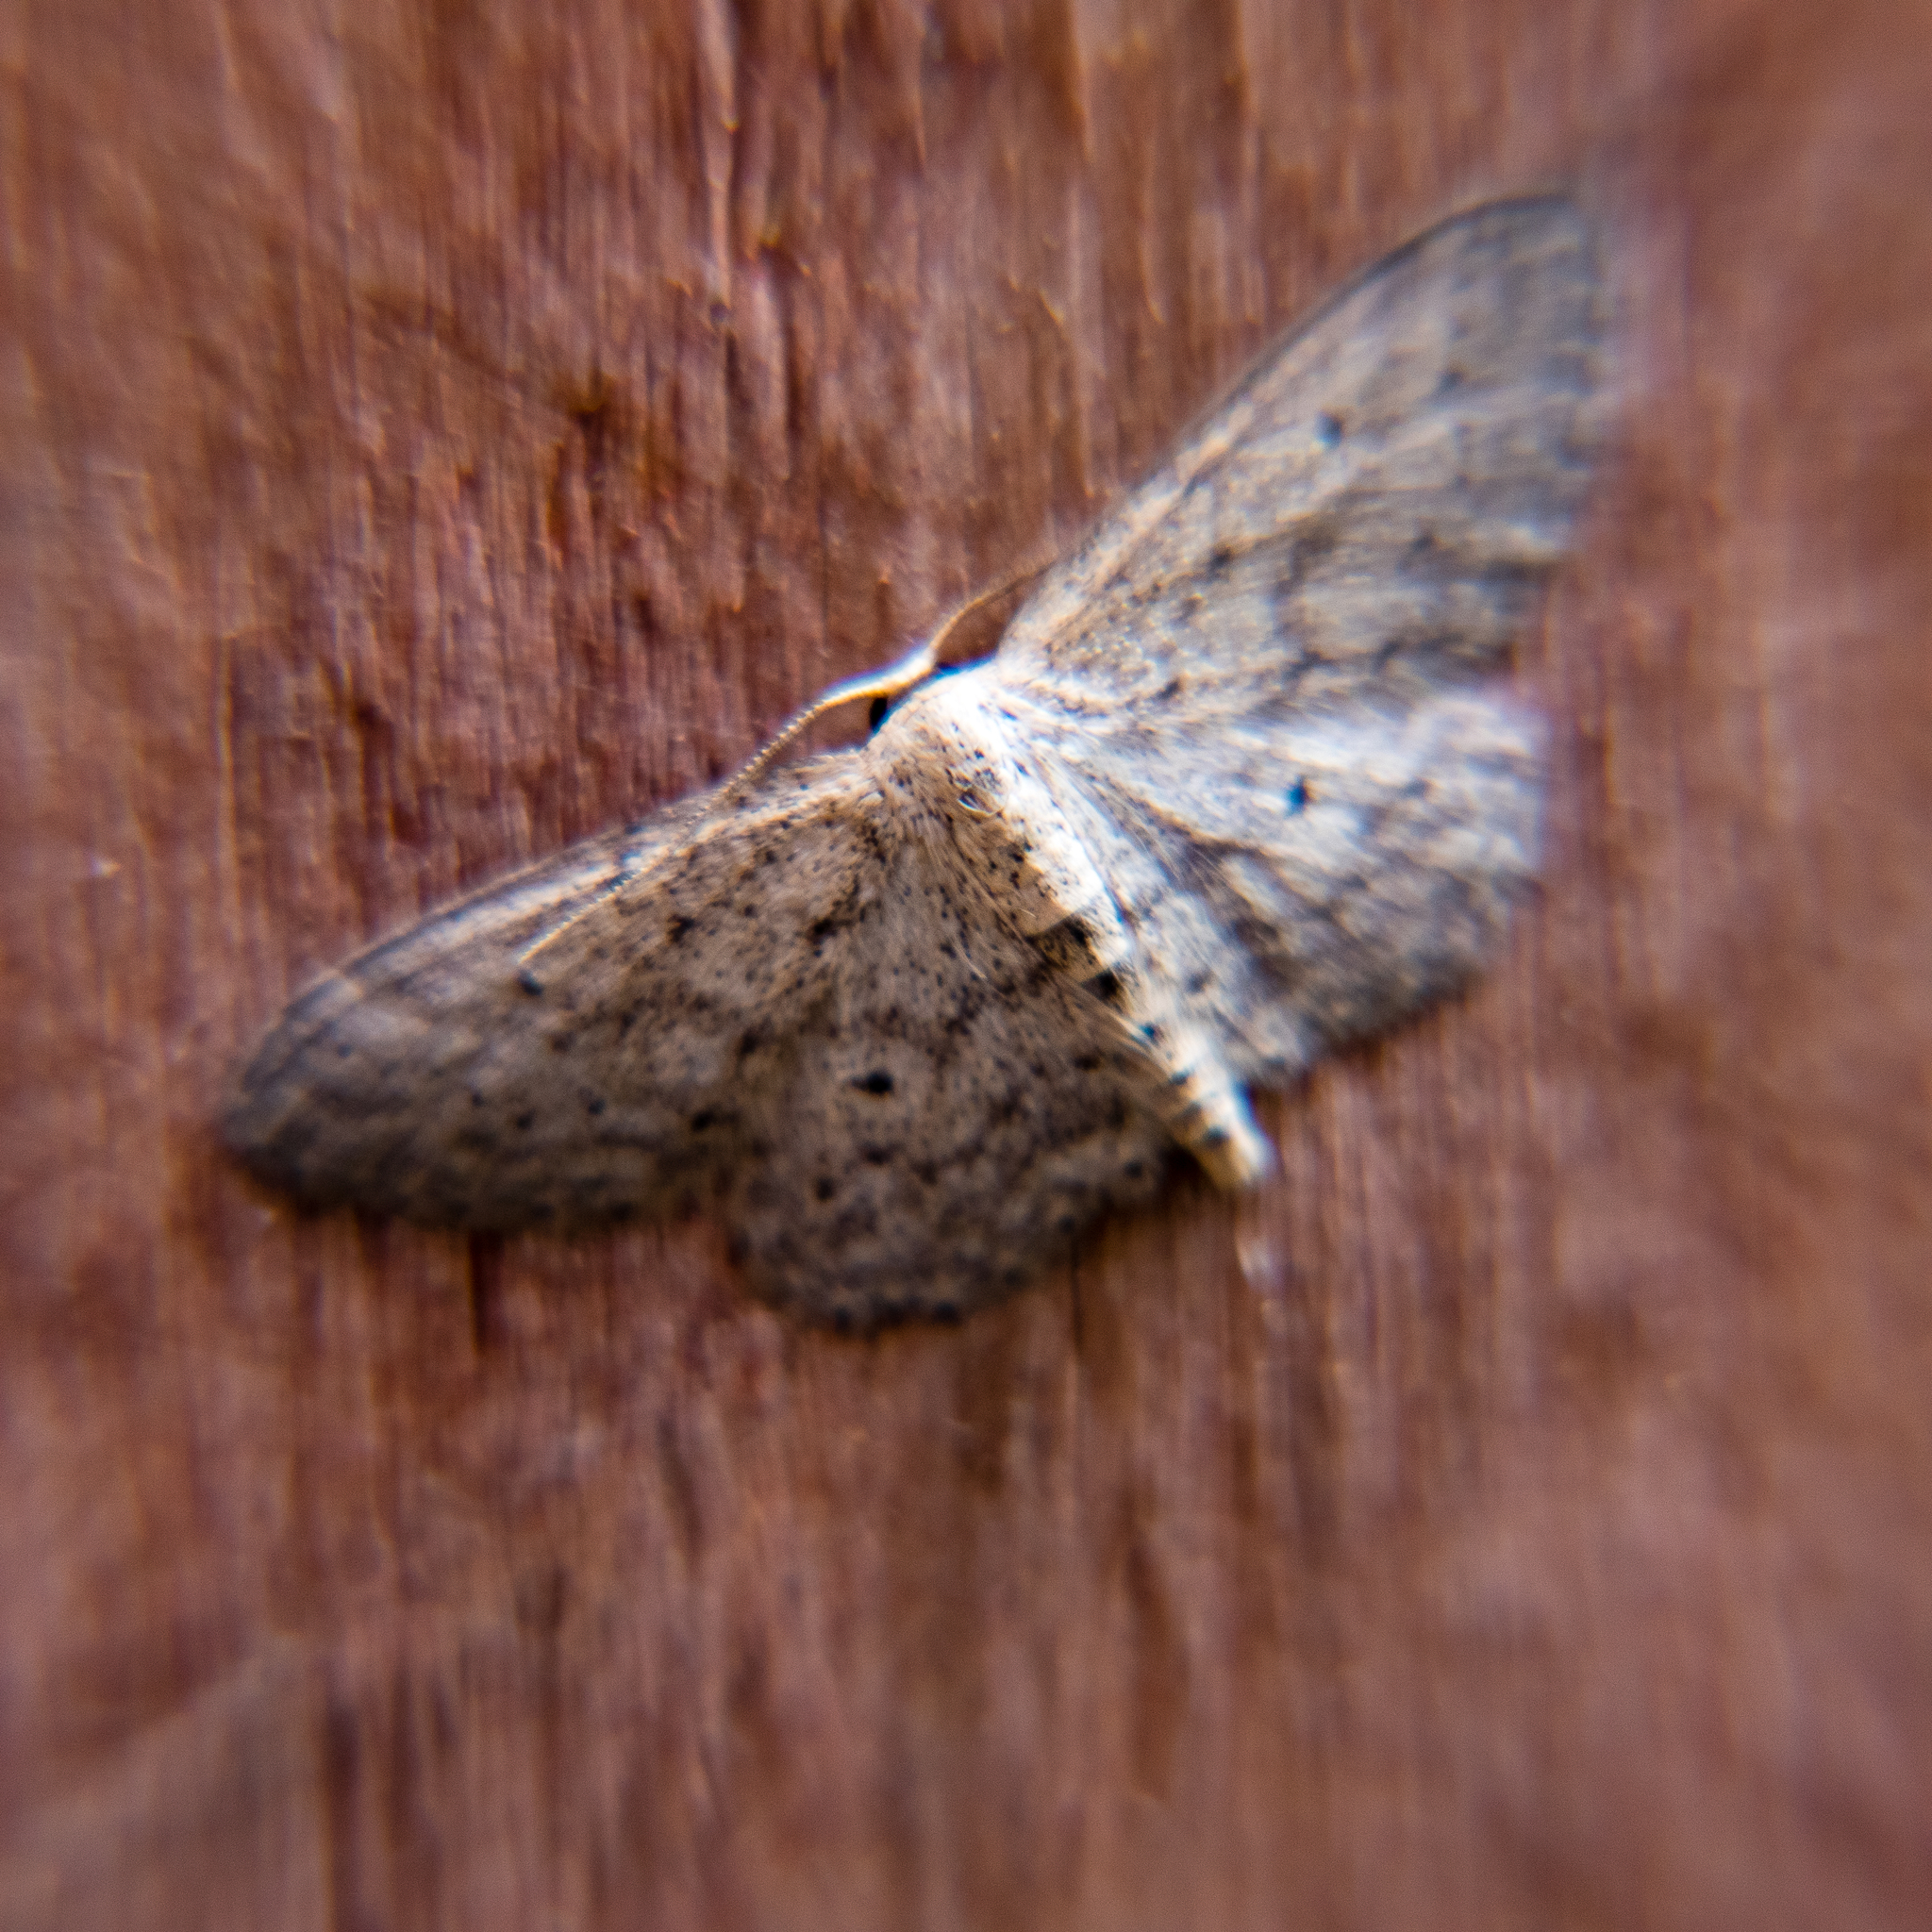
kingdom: Animalia
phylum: Arthropoda
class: Insecta
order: Lepidoptera
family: Geometridae
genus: Idaea
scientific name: Idaea seriata
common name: Small dusty wave
